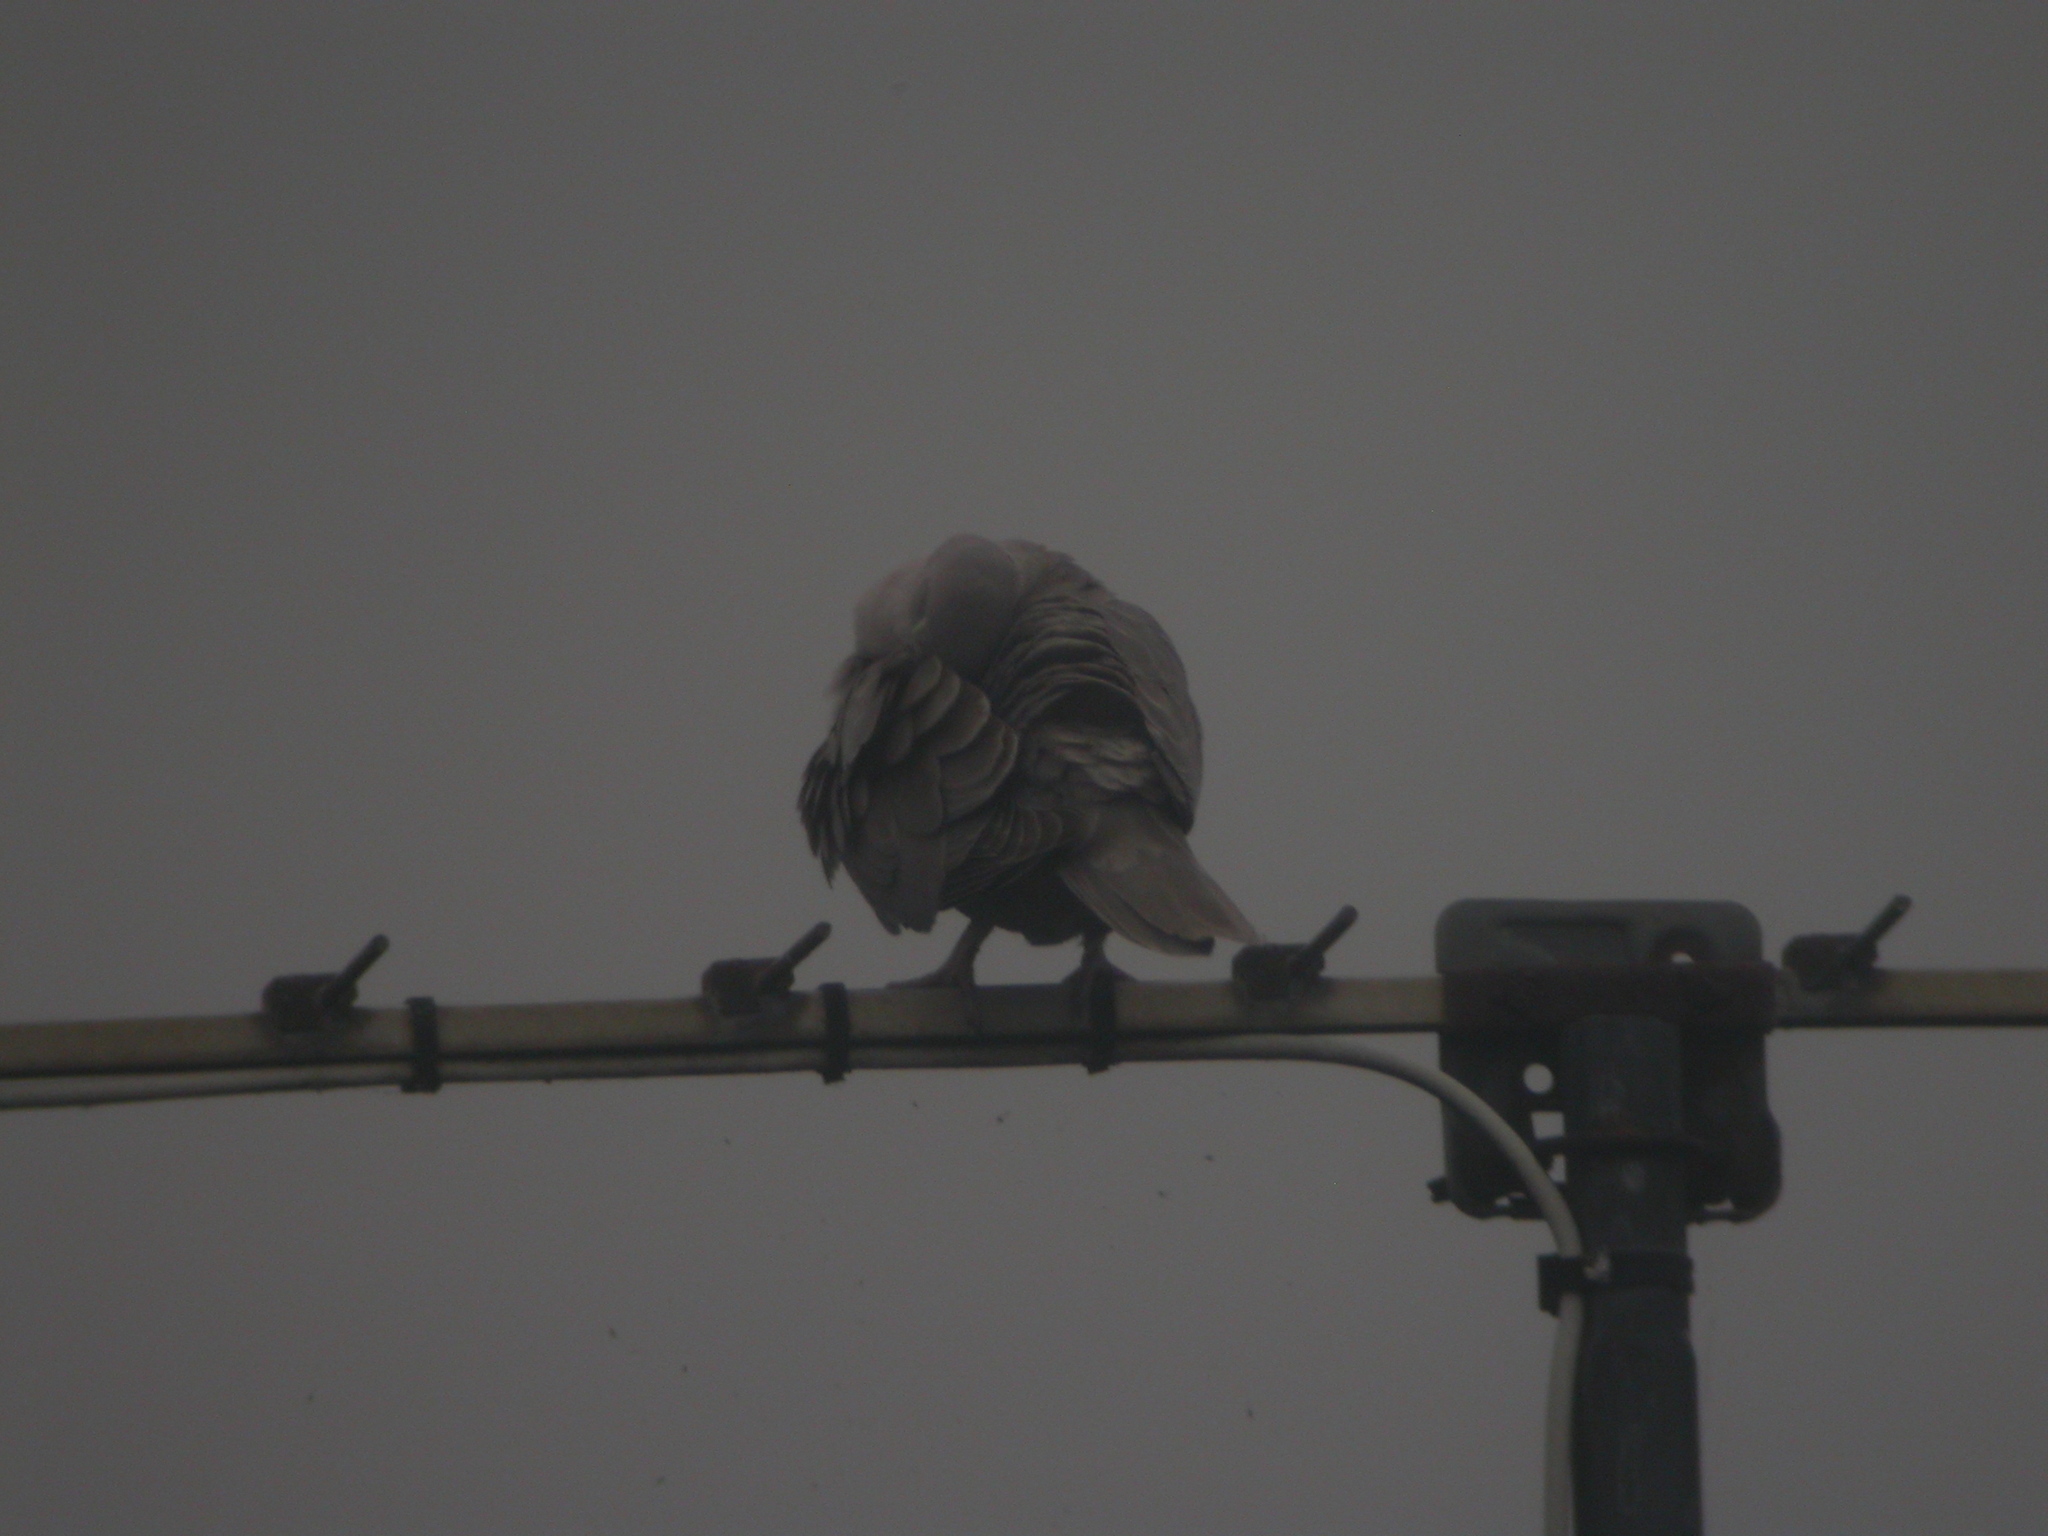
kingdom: Animalia
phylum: Chordata
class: Aves
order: Columbiformes
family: Columbidae
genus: Streptopelia
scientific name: Streptopelia decaocto
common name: Eurasian collared dove
